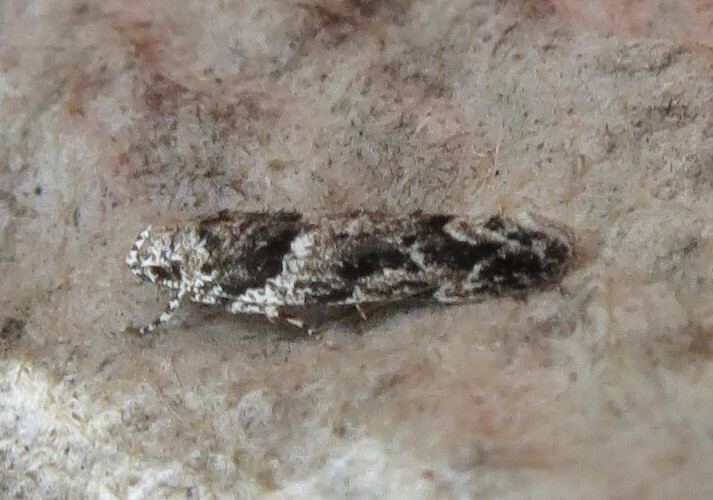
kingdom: Animalia
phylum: Arthropoda
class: Insecta
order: Lepidoptera
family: Gelechiidae
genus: Recurvaria
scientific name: Recurvaria nanella
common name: Gelechiid moth
